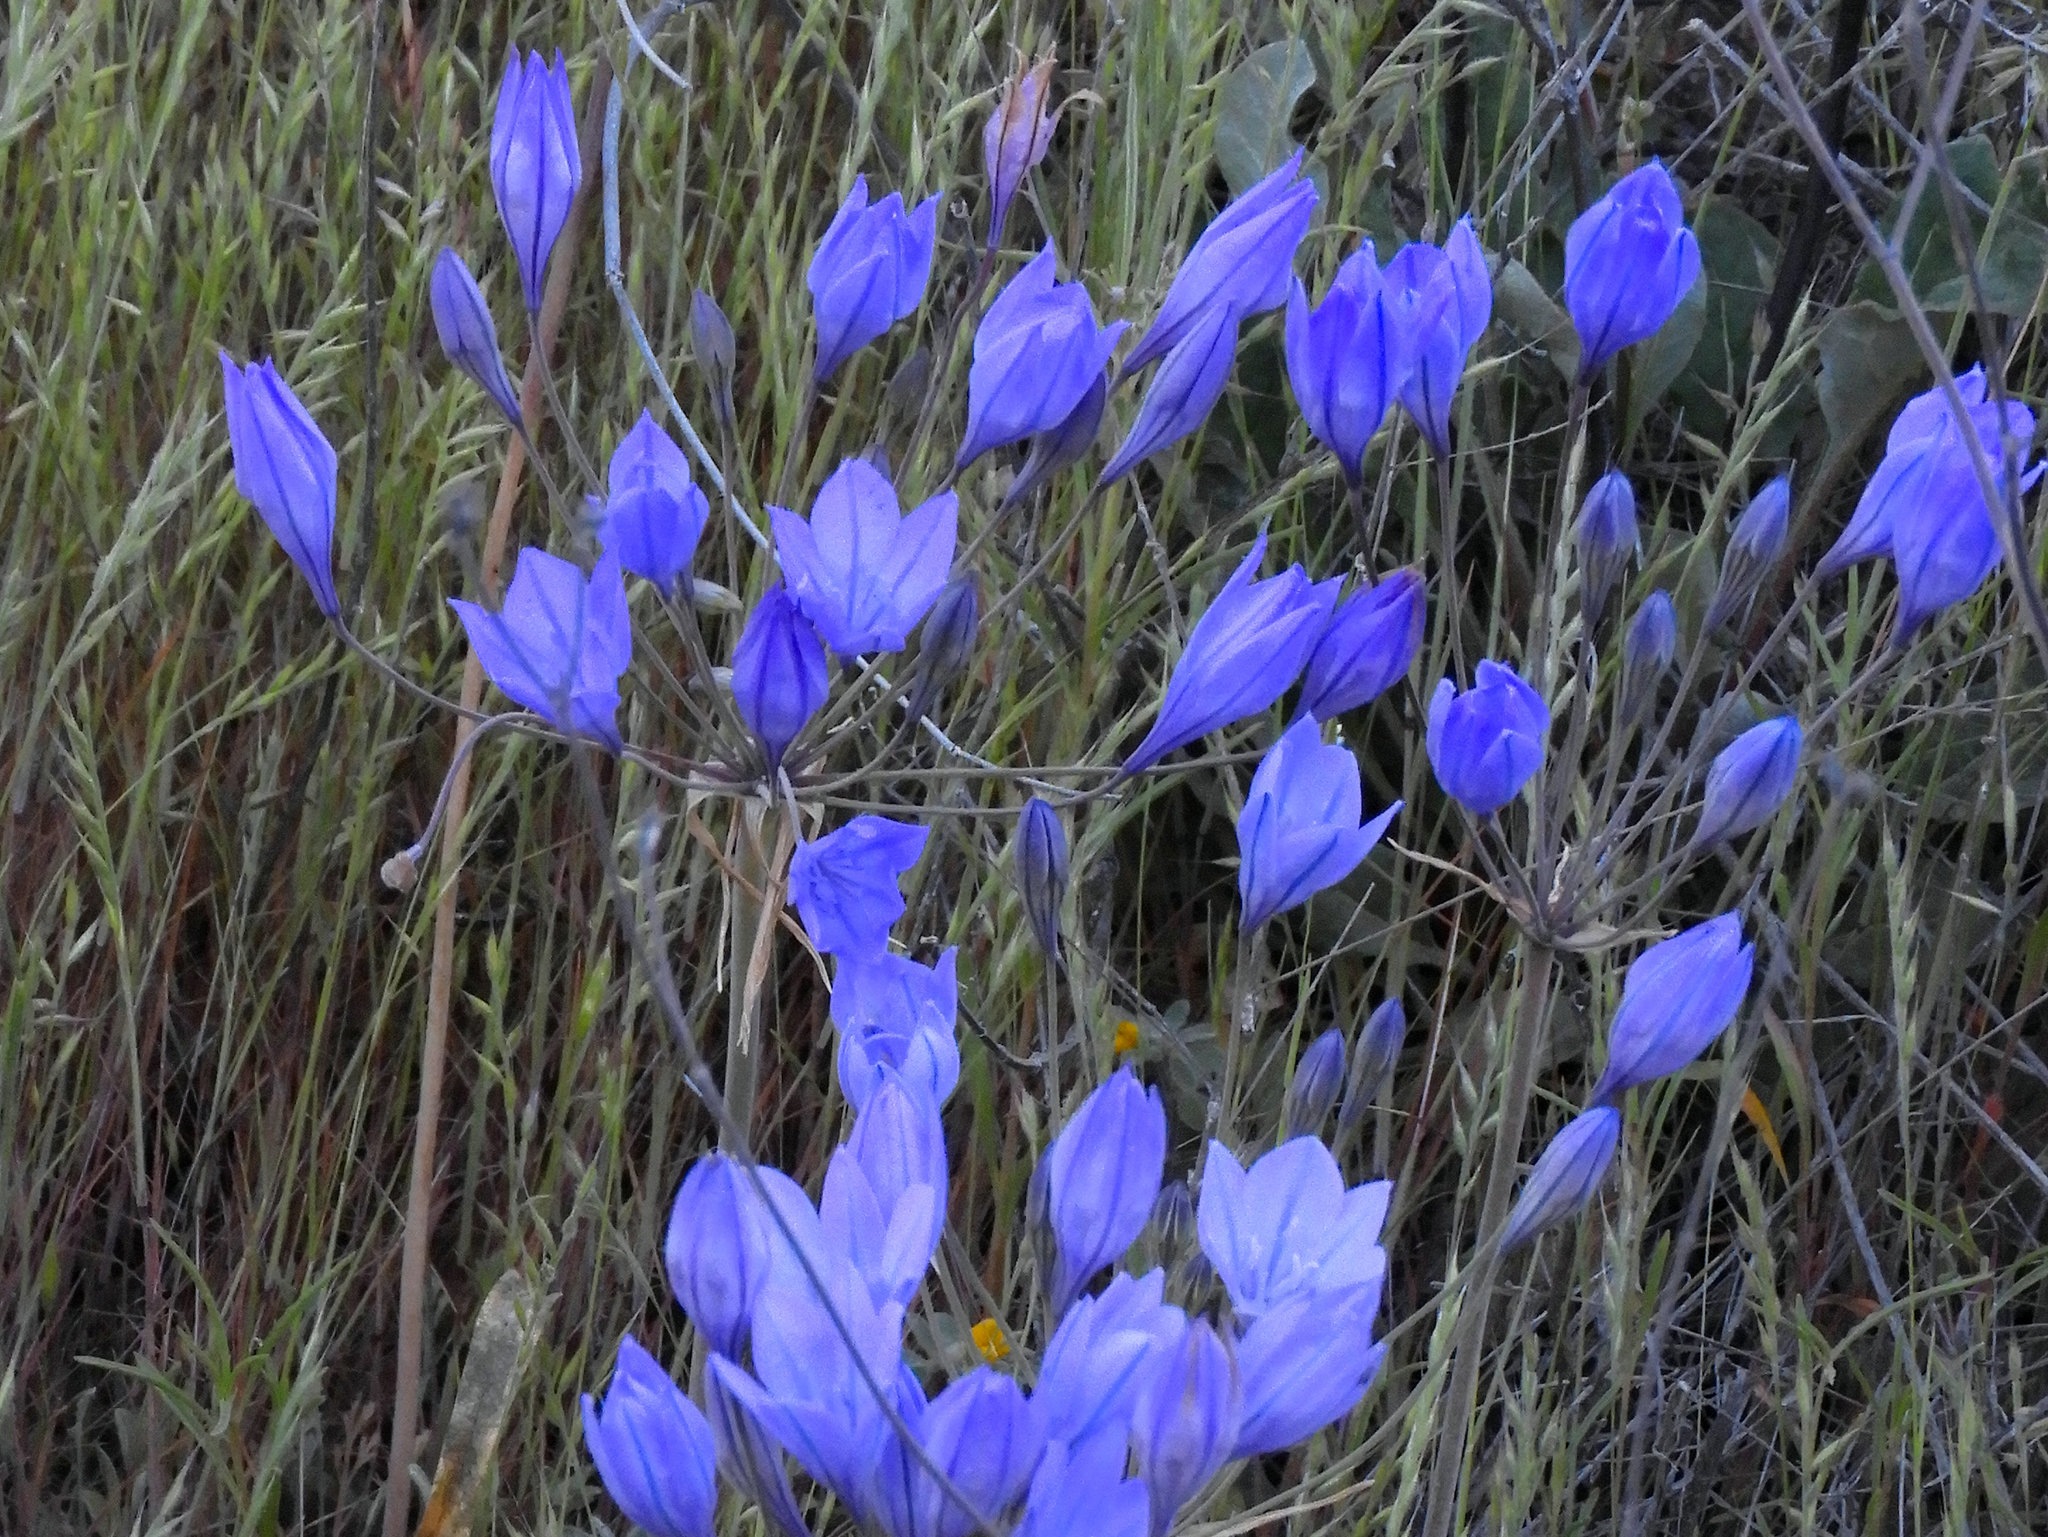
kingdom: Plantae
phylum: Tracheophyta
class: Liliopsida
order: Asparagales
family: Asparagaceae
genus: Triteleia
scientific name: Triteleia laxa
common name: Triplet-lily
